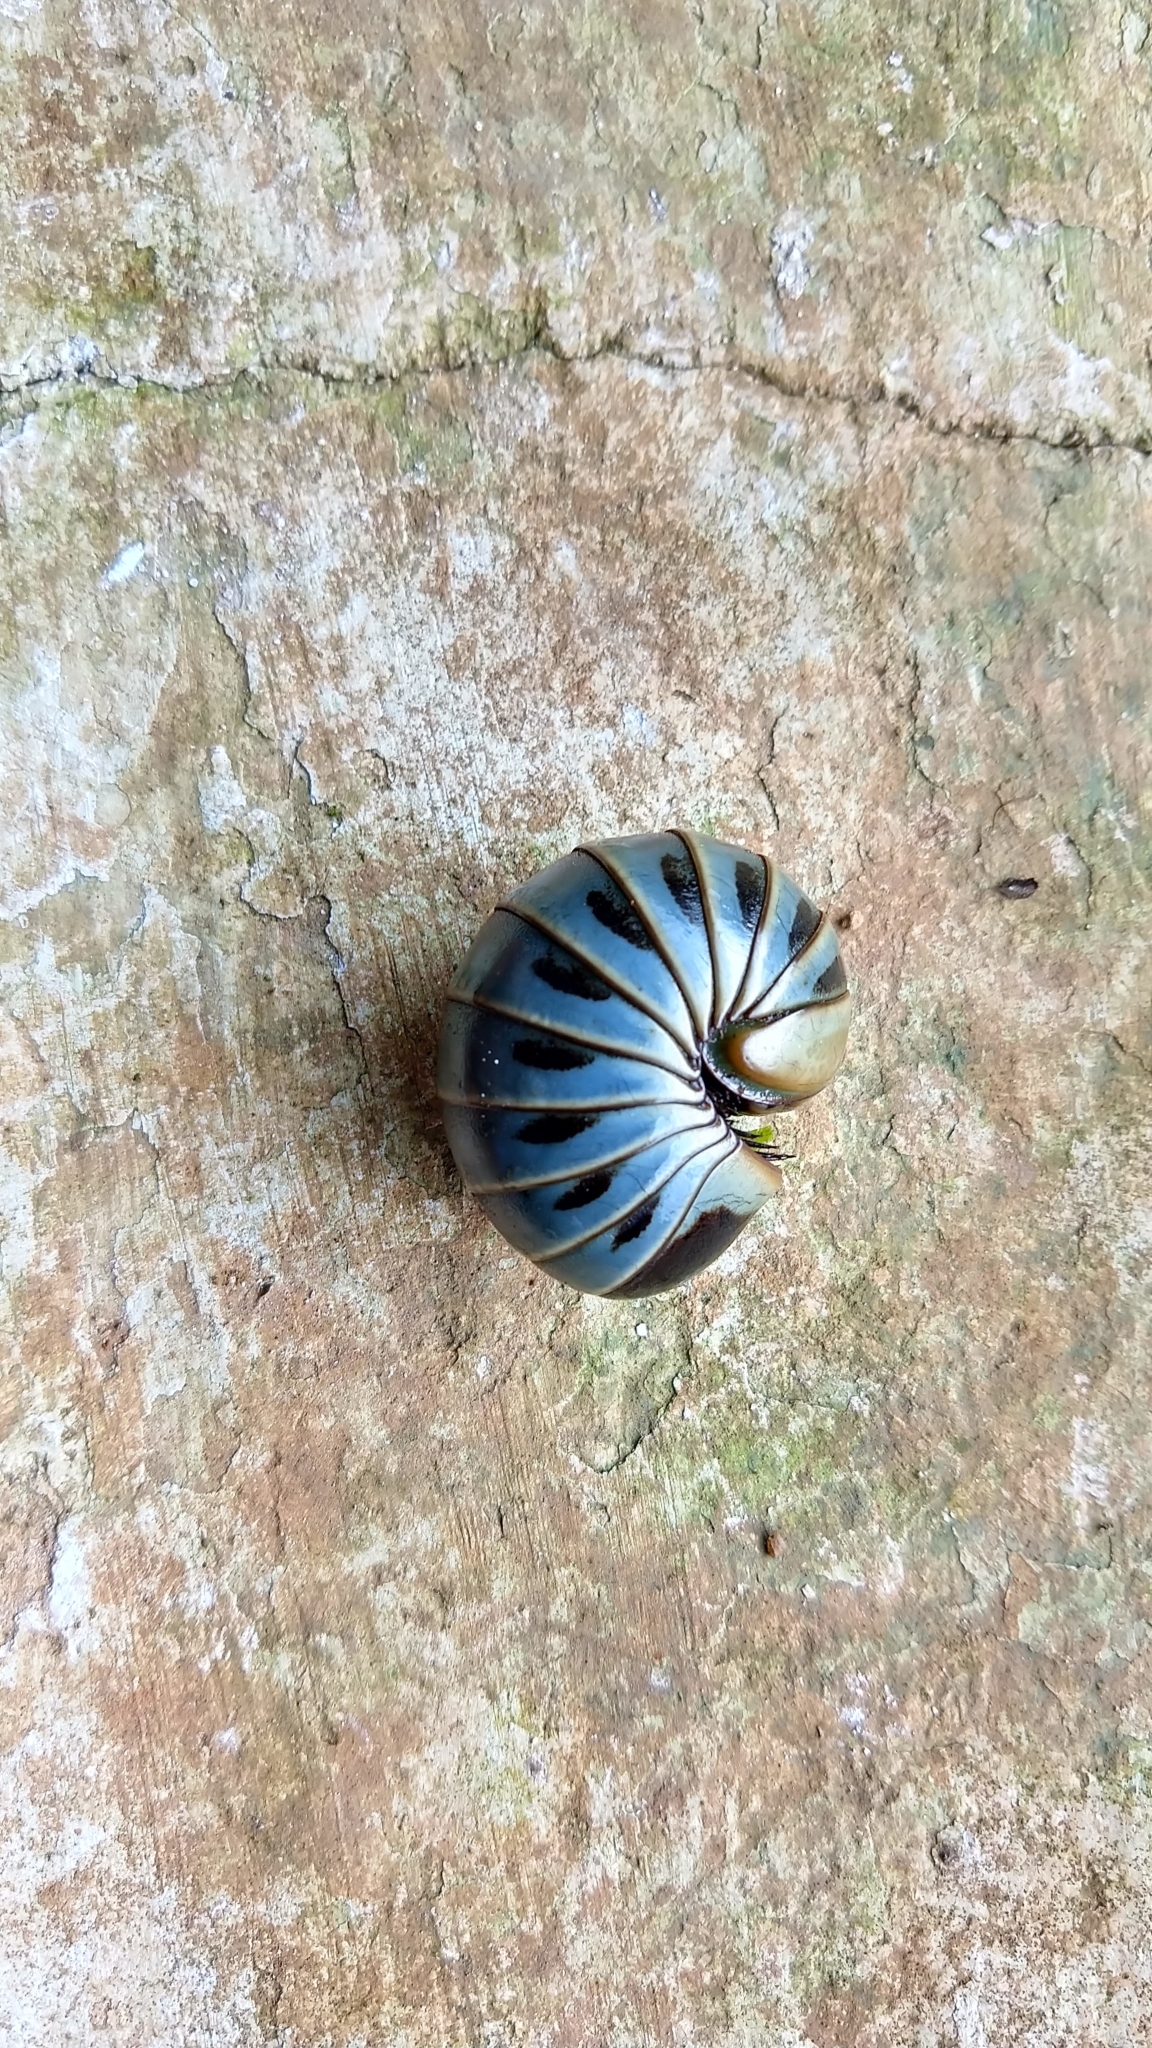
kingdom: Animalia
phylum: Arthropoda
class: Diplopoda
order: Sphaerotheriida
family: Arthrosphaeridae
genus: Arthrosphaera
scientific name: Arthrosphaera fumosa
